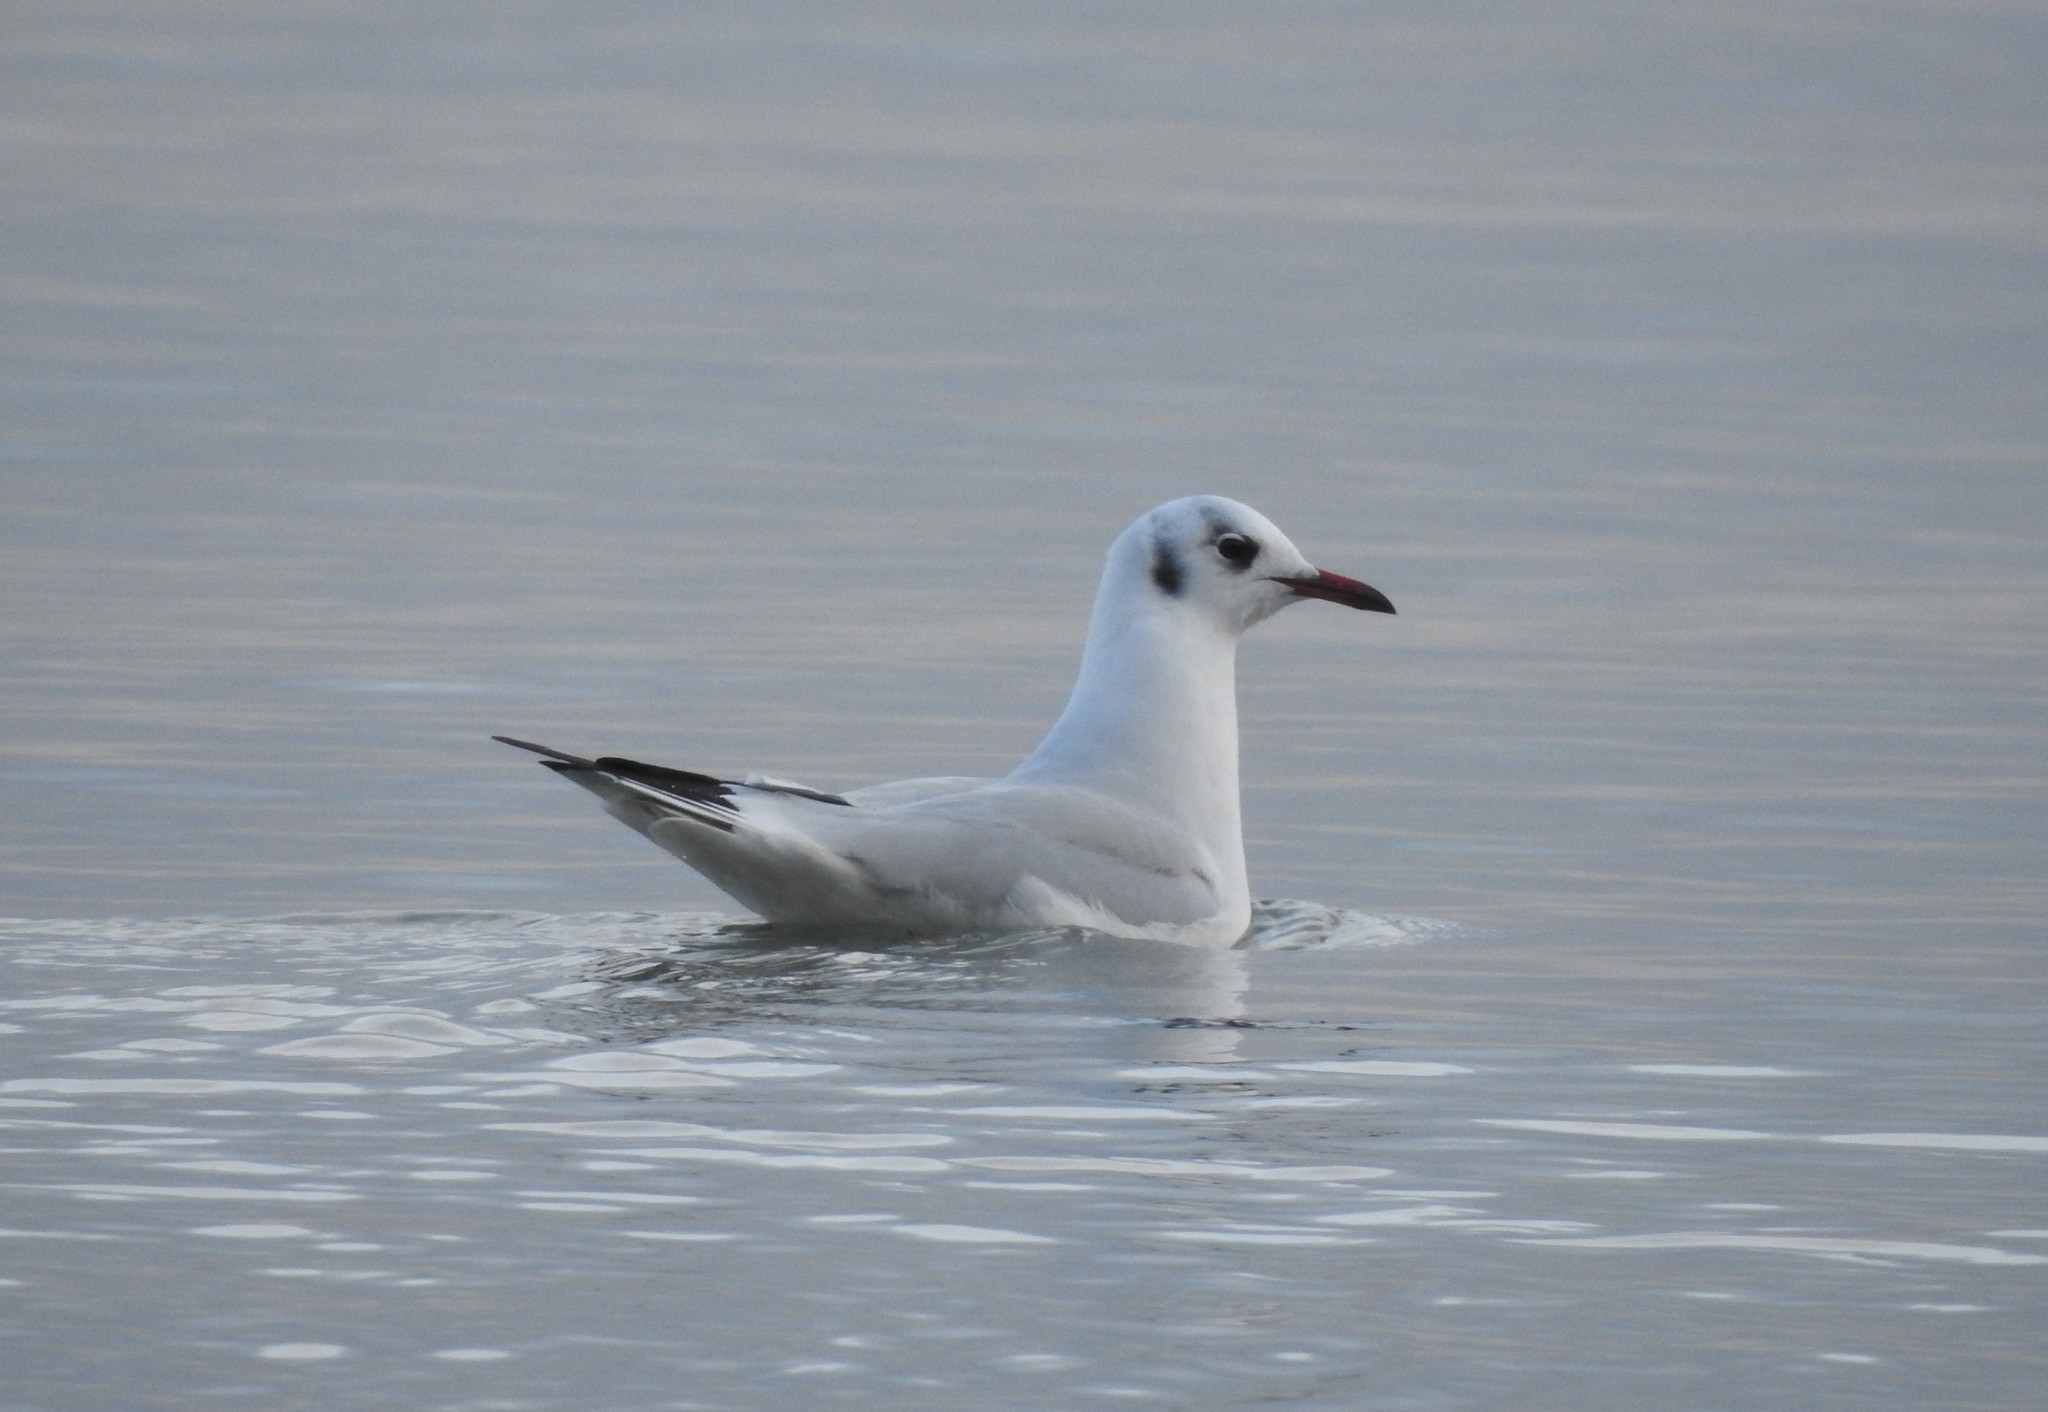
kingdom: Animalia
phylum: Chordata
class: Aves
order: Charadriiformes
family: Laridae
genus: Chroicocephalus
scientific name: Chroicocephalus ridibundus
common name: Black-headed gull
